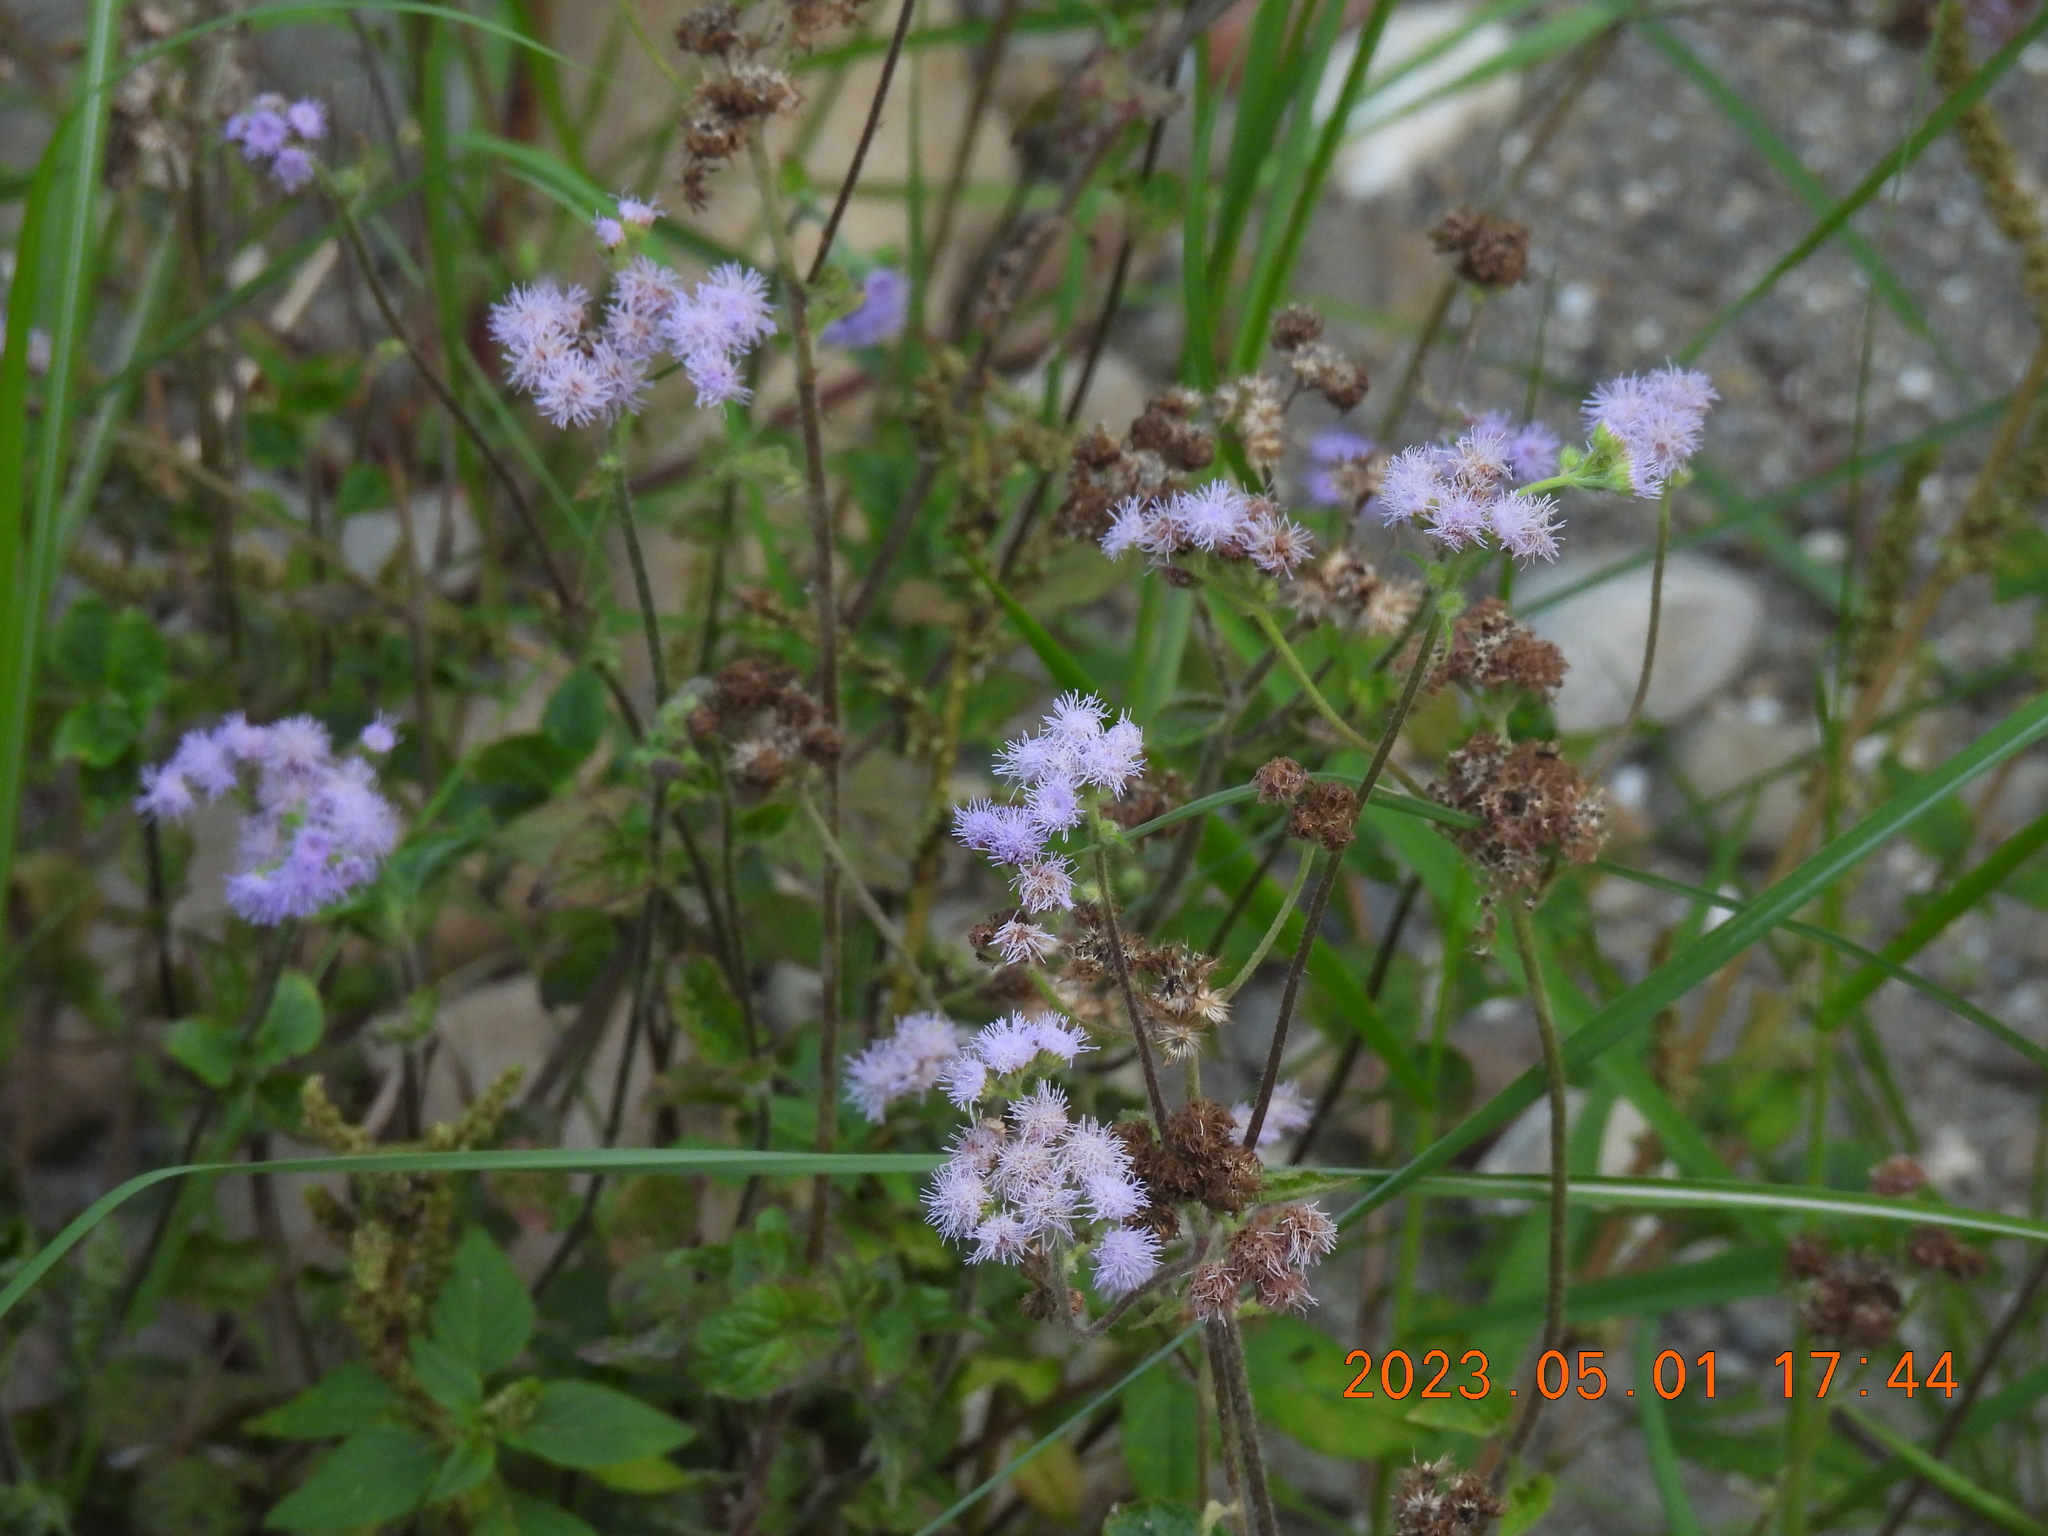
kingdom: Plantae
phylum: Tracheophyta
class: Magnoliopsida
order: Asterales
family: Asteraceae
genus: Ageratum
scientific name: Ageratum houstonianum
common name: Bluemink
